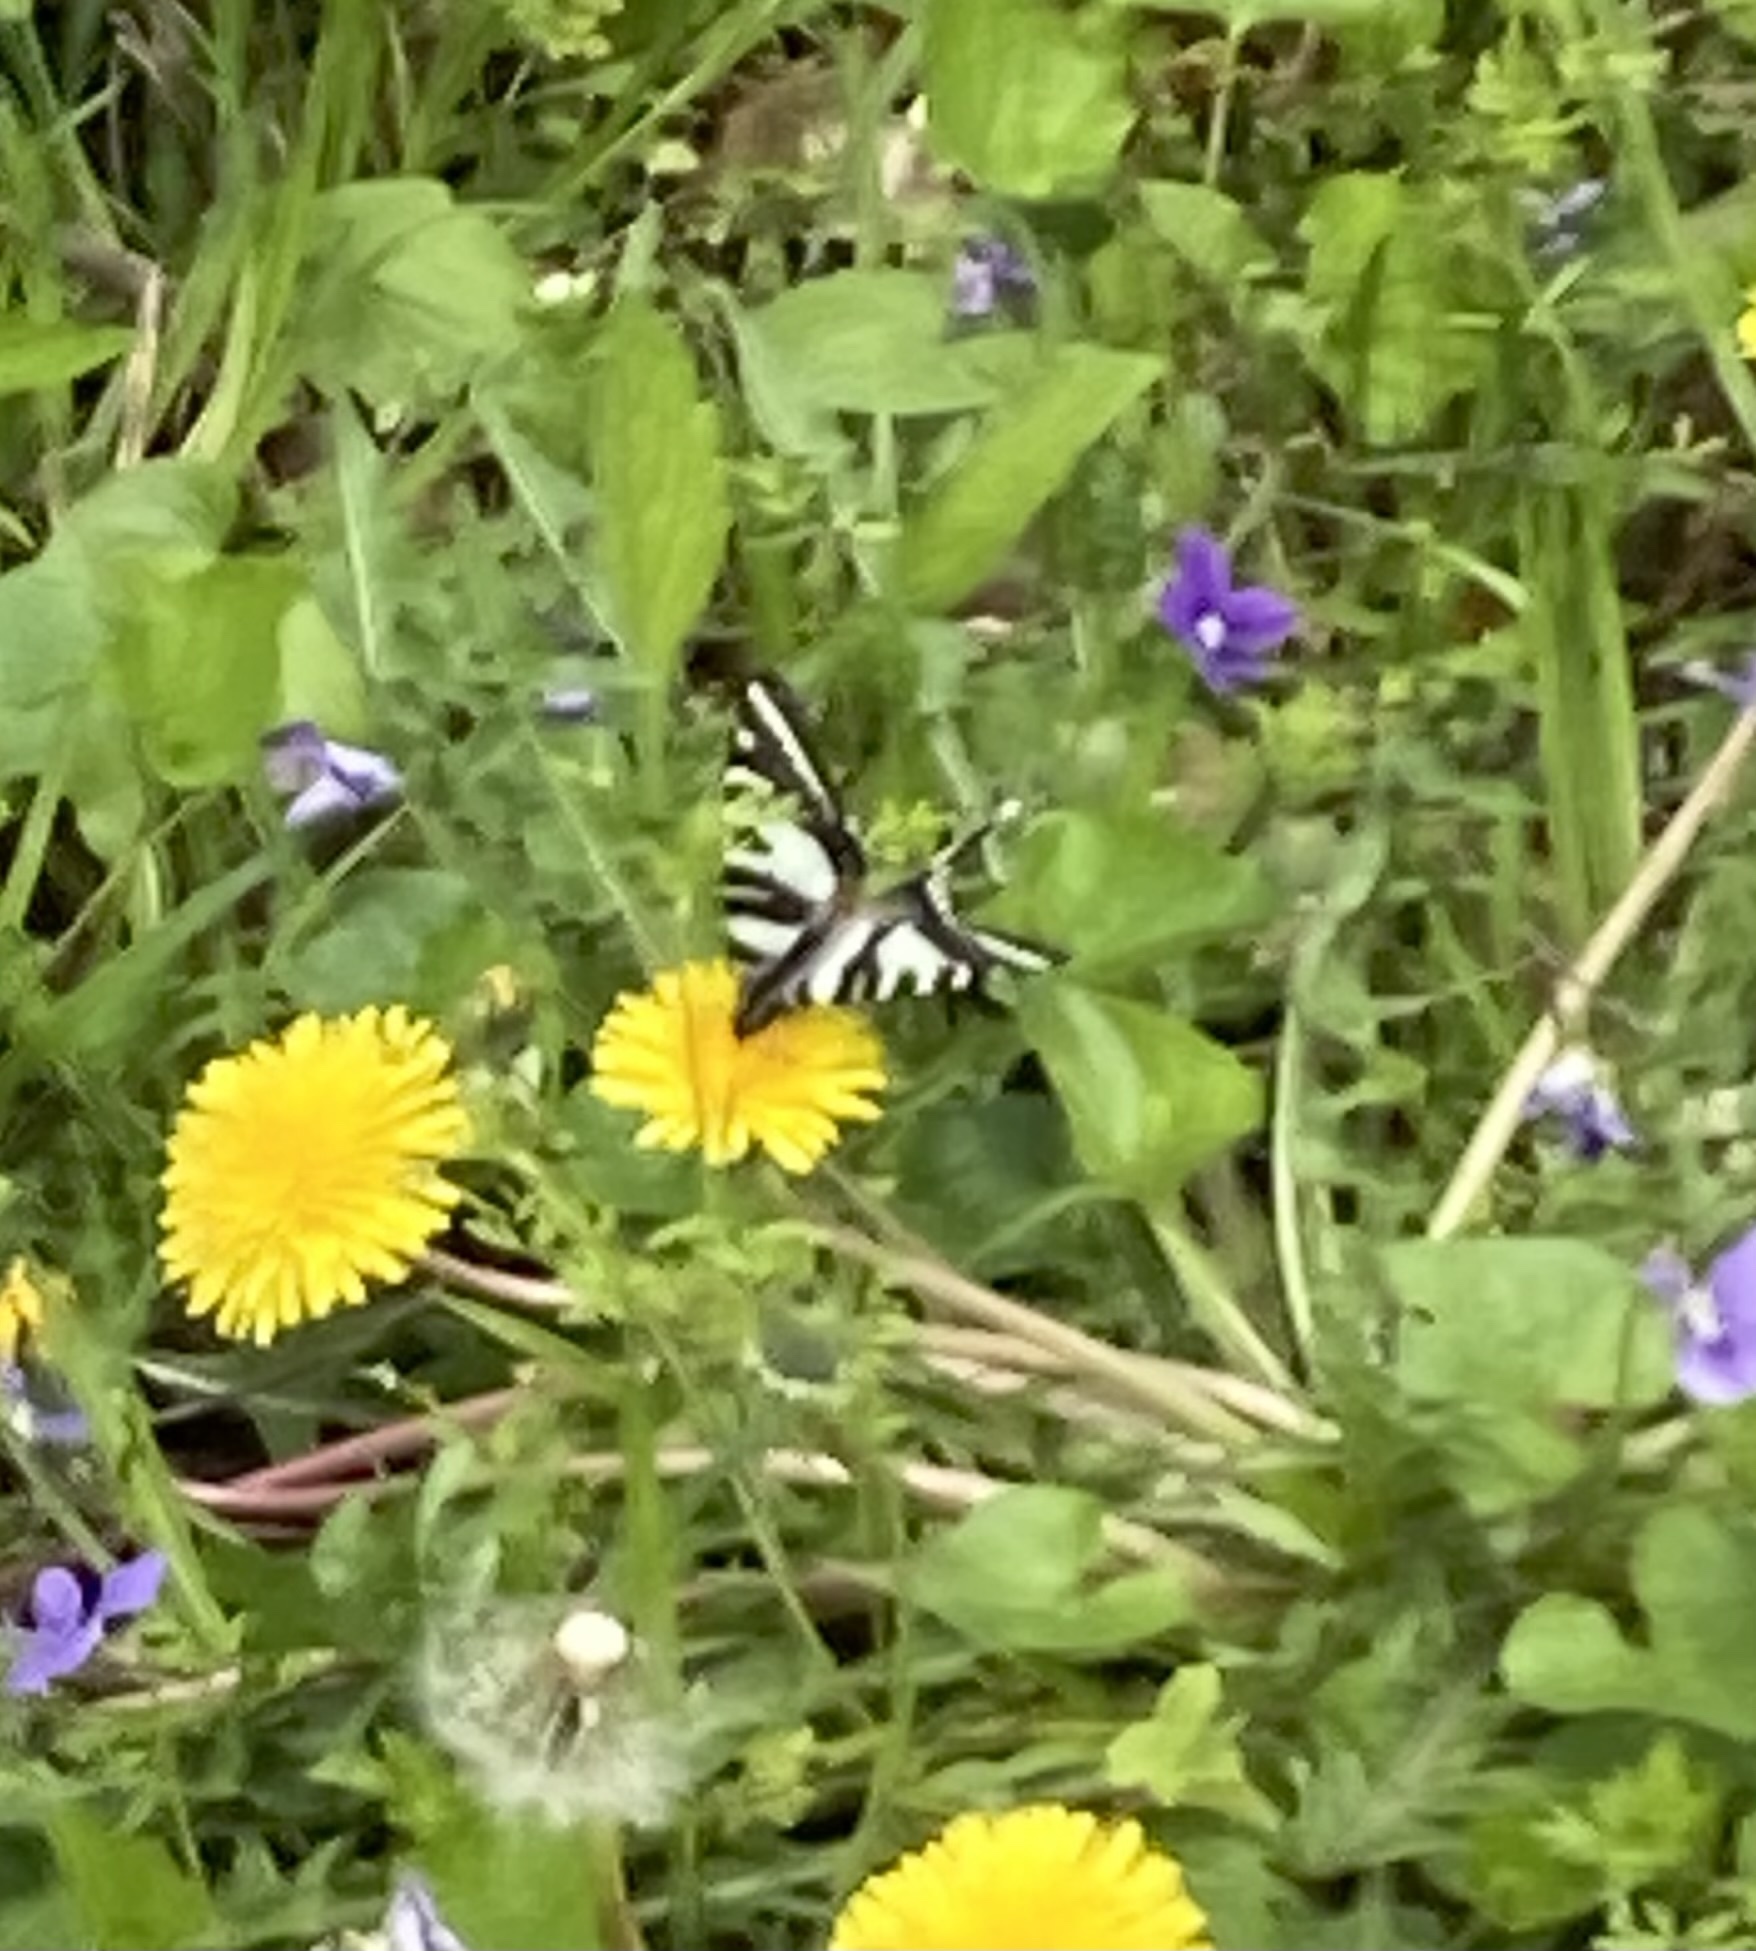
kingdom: Animalia
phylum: Arthropoda
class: Insecta
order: Lepidoptera
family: Papilionidae
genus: Protographium
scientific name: Protographium marcellus
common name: Zebra swallowtail
